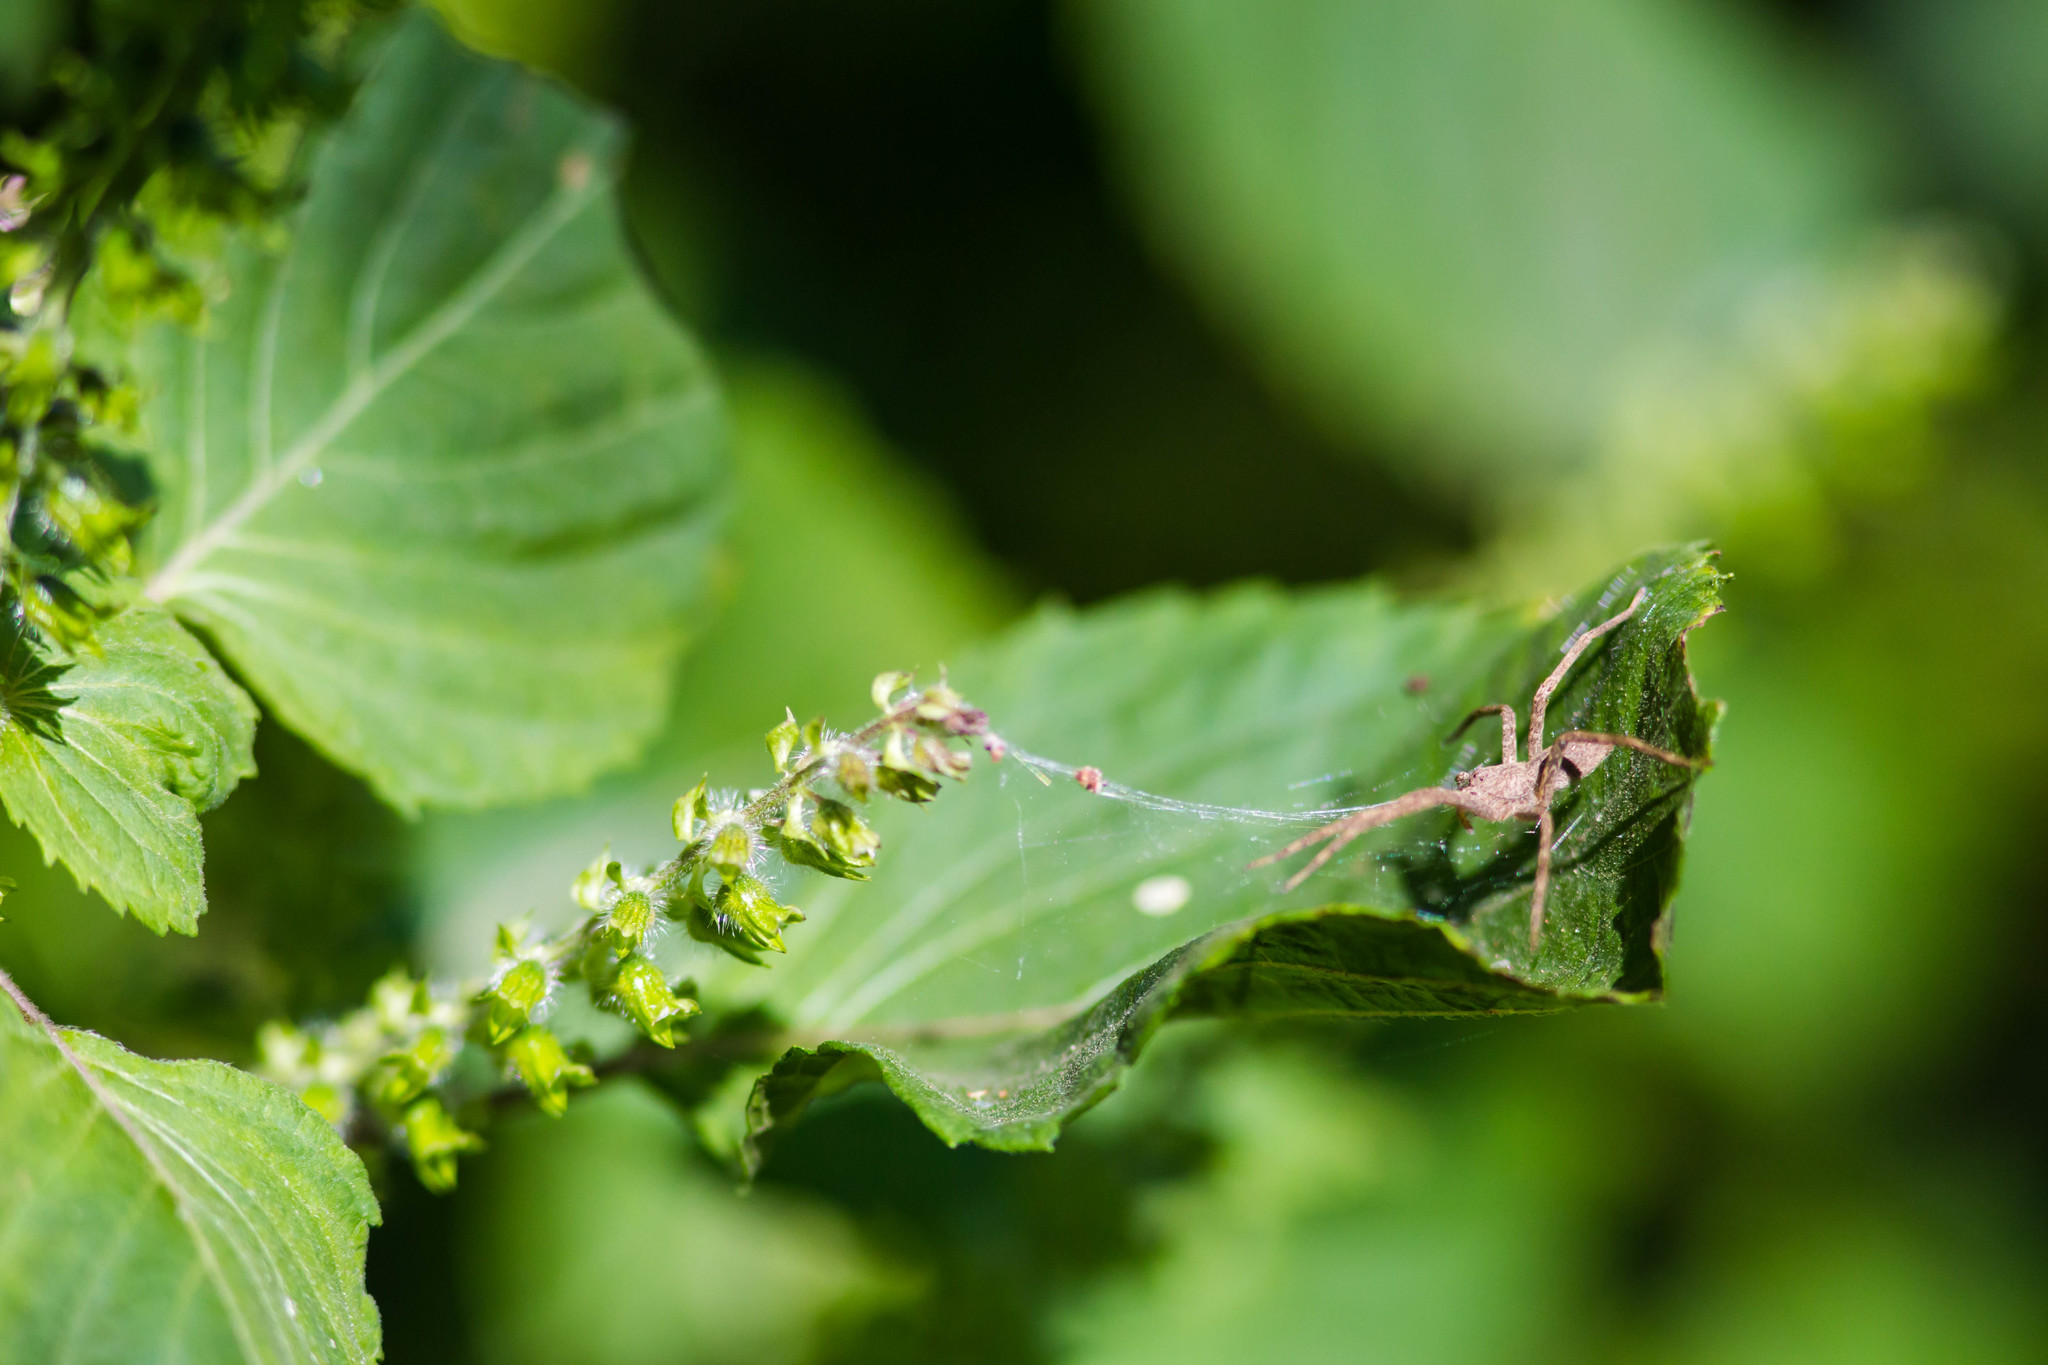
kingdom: Animalia
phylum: Arthropoda
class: Arachnida
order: Araneae
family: Pisauridae
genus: Pisaurina
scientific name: Pisaurina mira
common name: American nursery web spider
